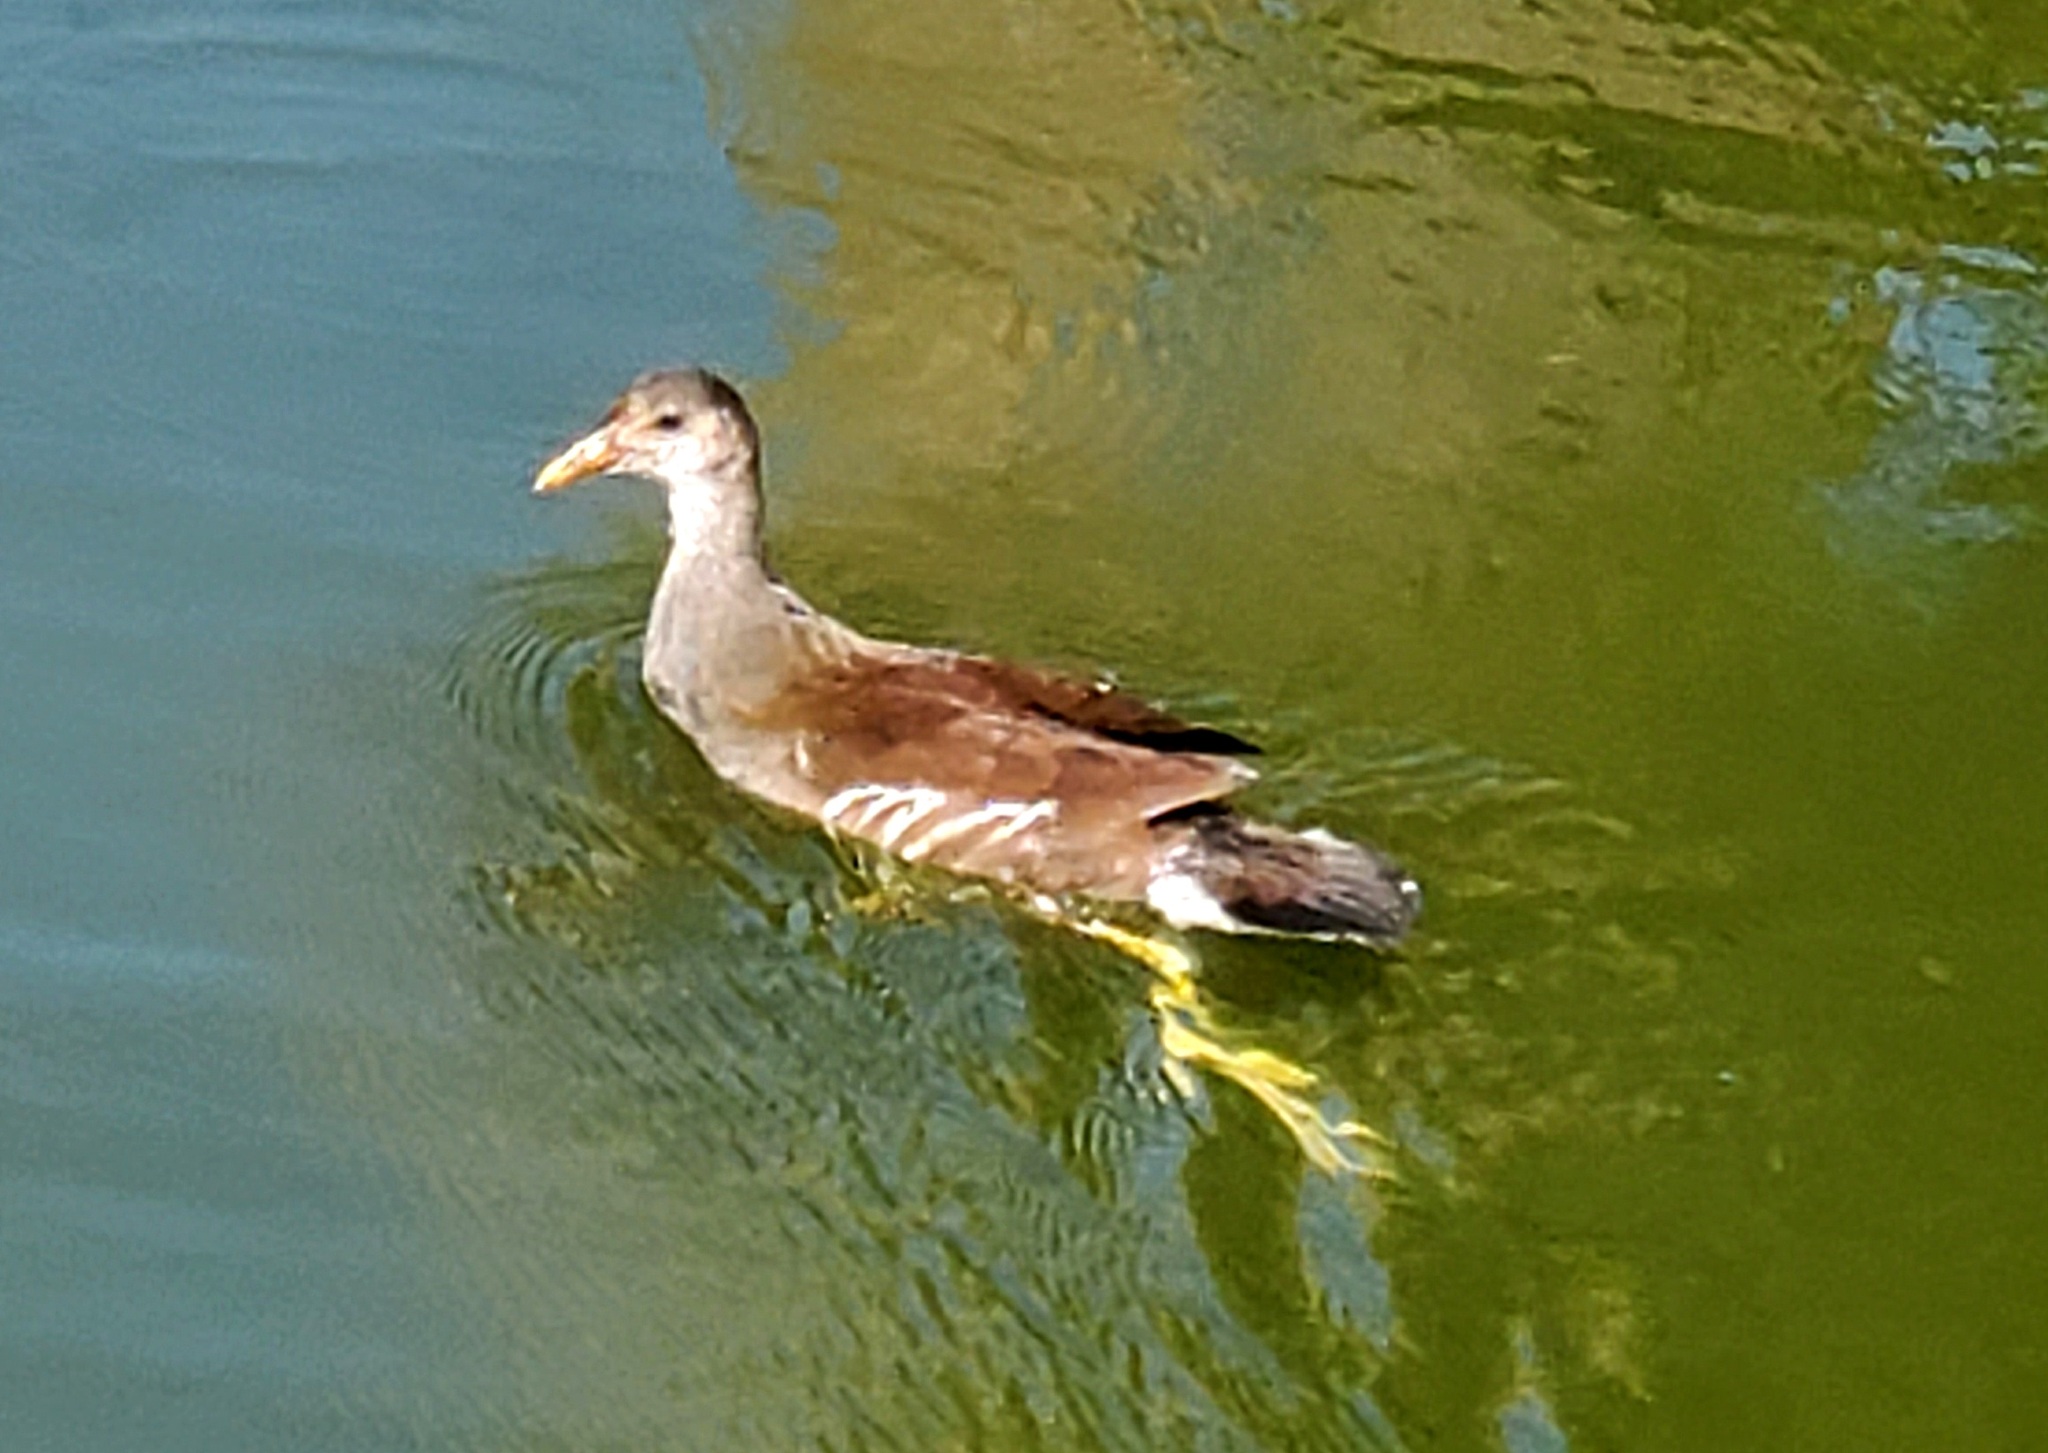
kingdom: Animalia
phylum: Chordata
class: Aves
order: Gruiformes
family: Rallidae
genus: Gallinula
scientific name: Gallinula chloropus
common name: Common moorhen
